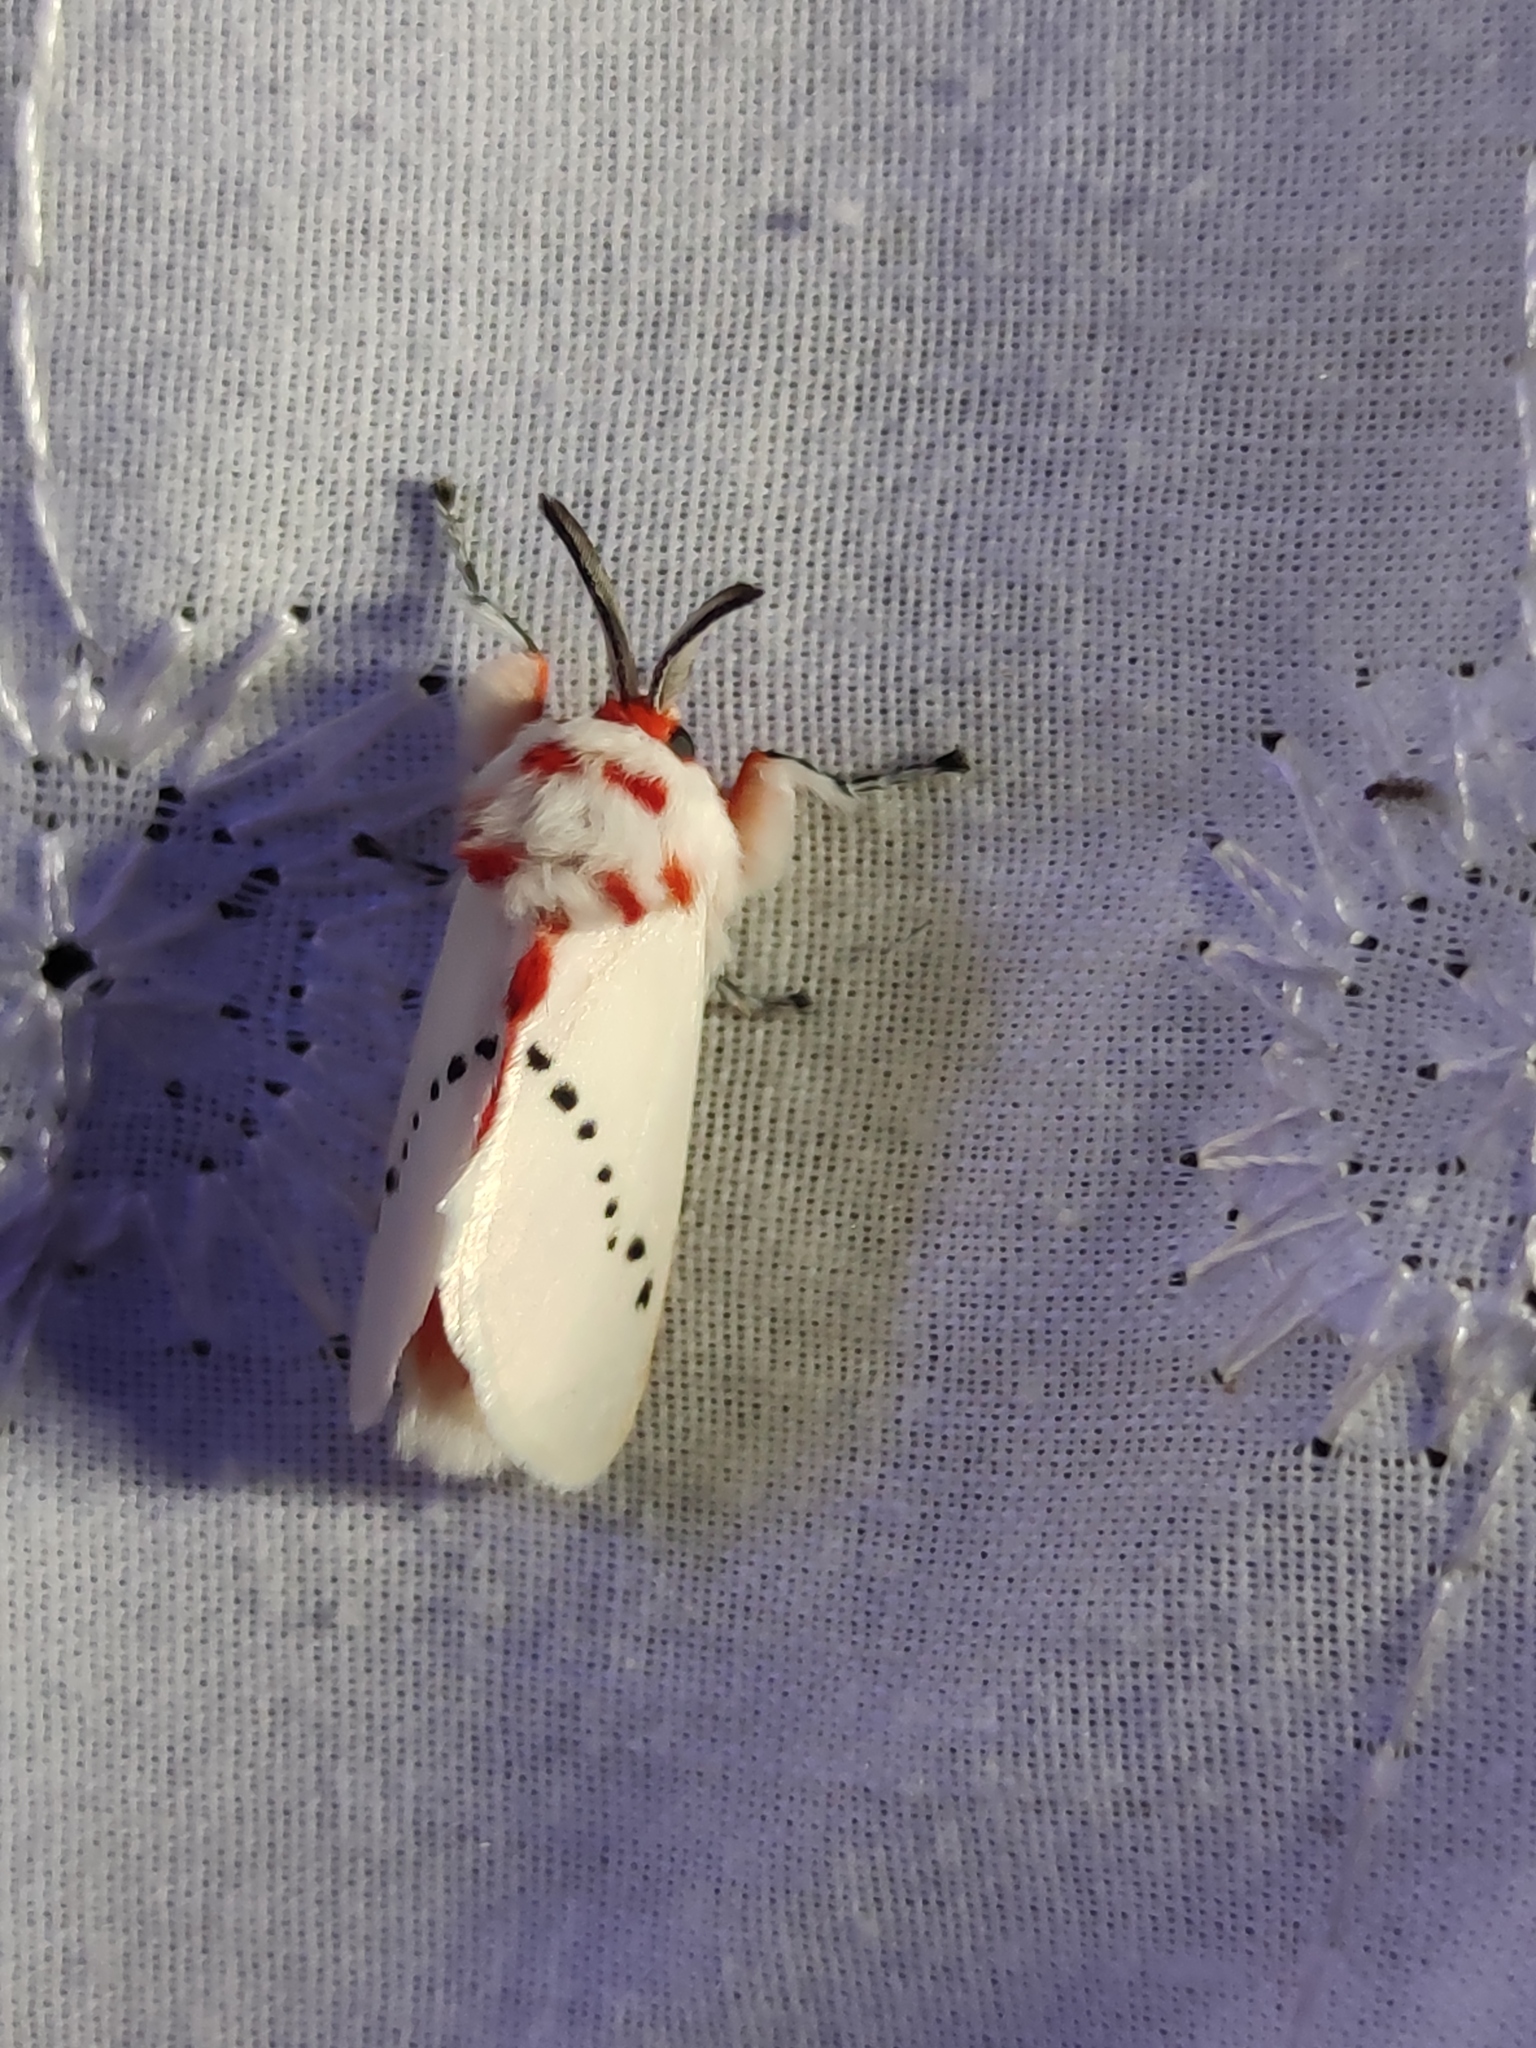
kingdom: Animalia
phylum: Arthropoda
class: Insecta
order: Lepidoptera
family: Megalopygidae
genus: Trosia
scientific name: Trosia semirufa
